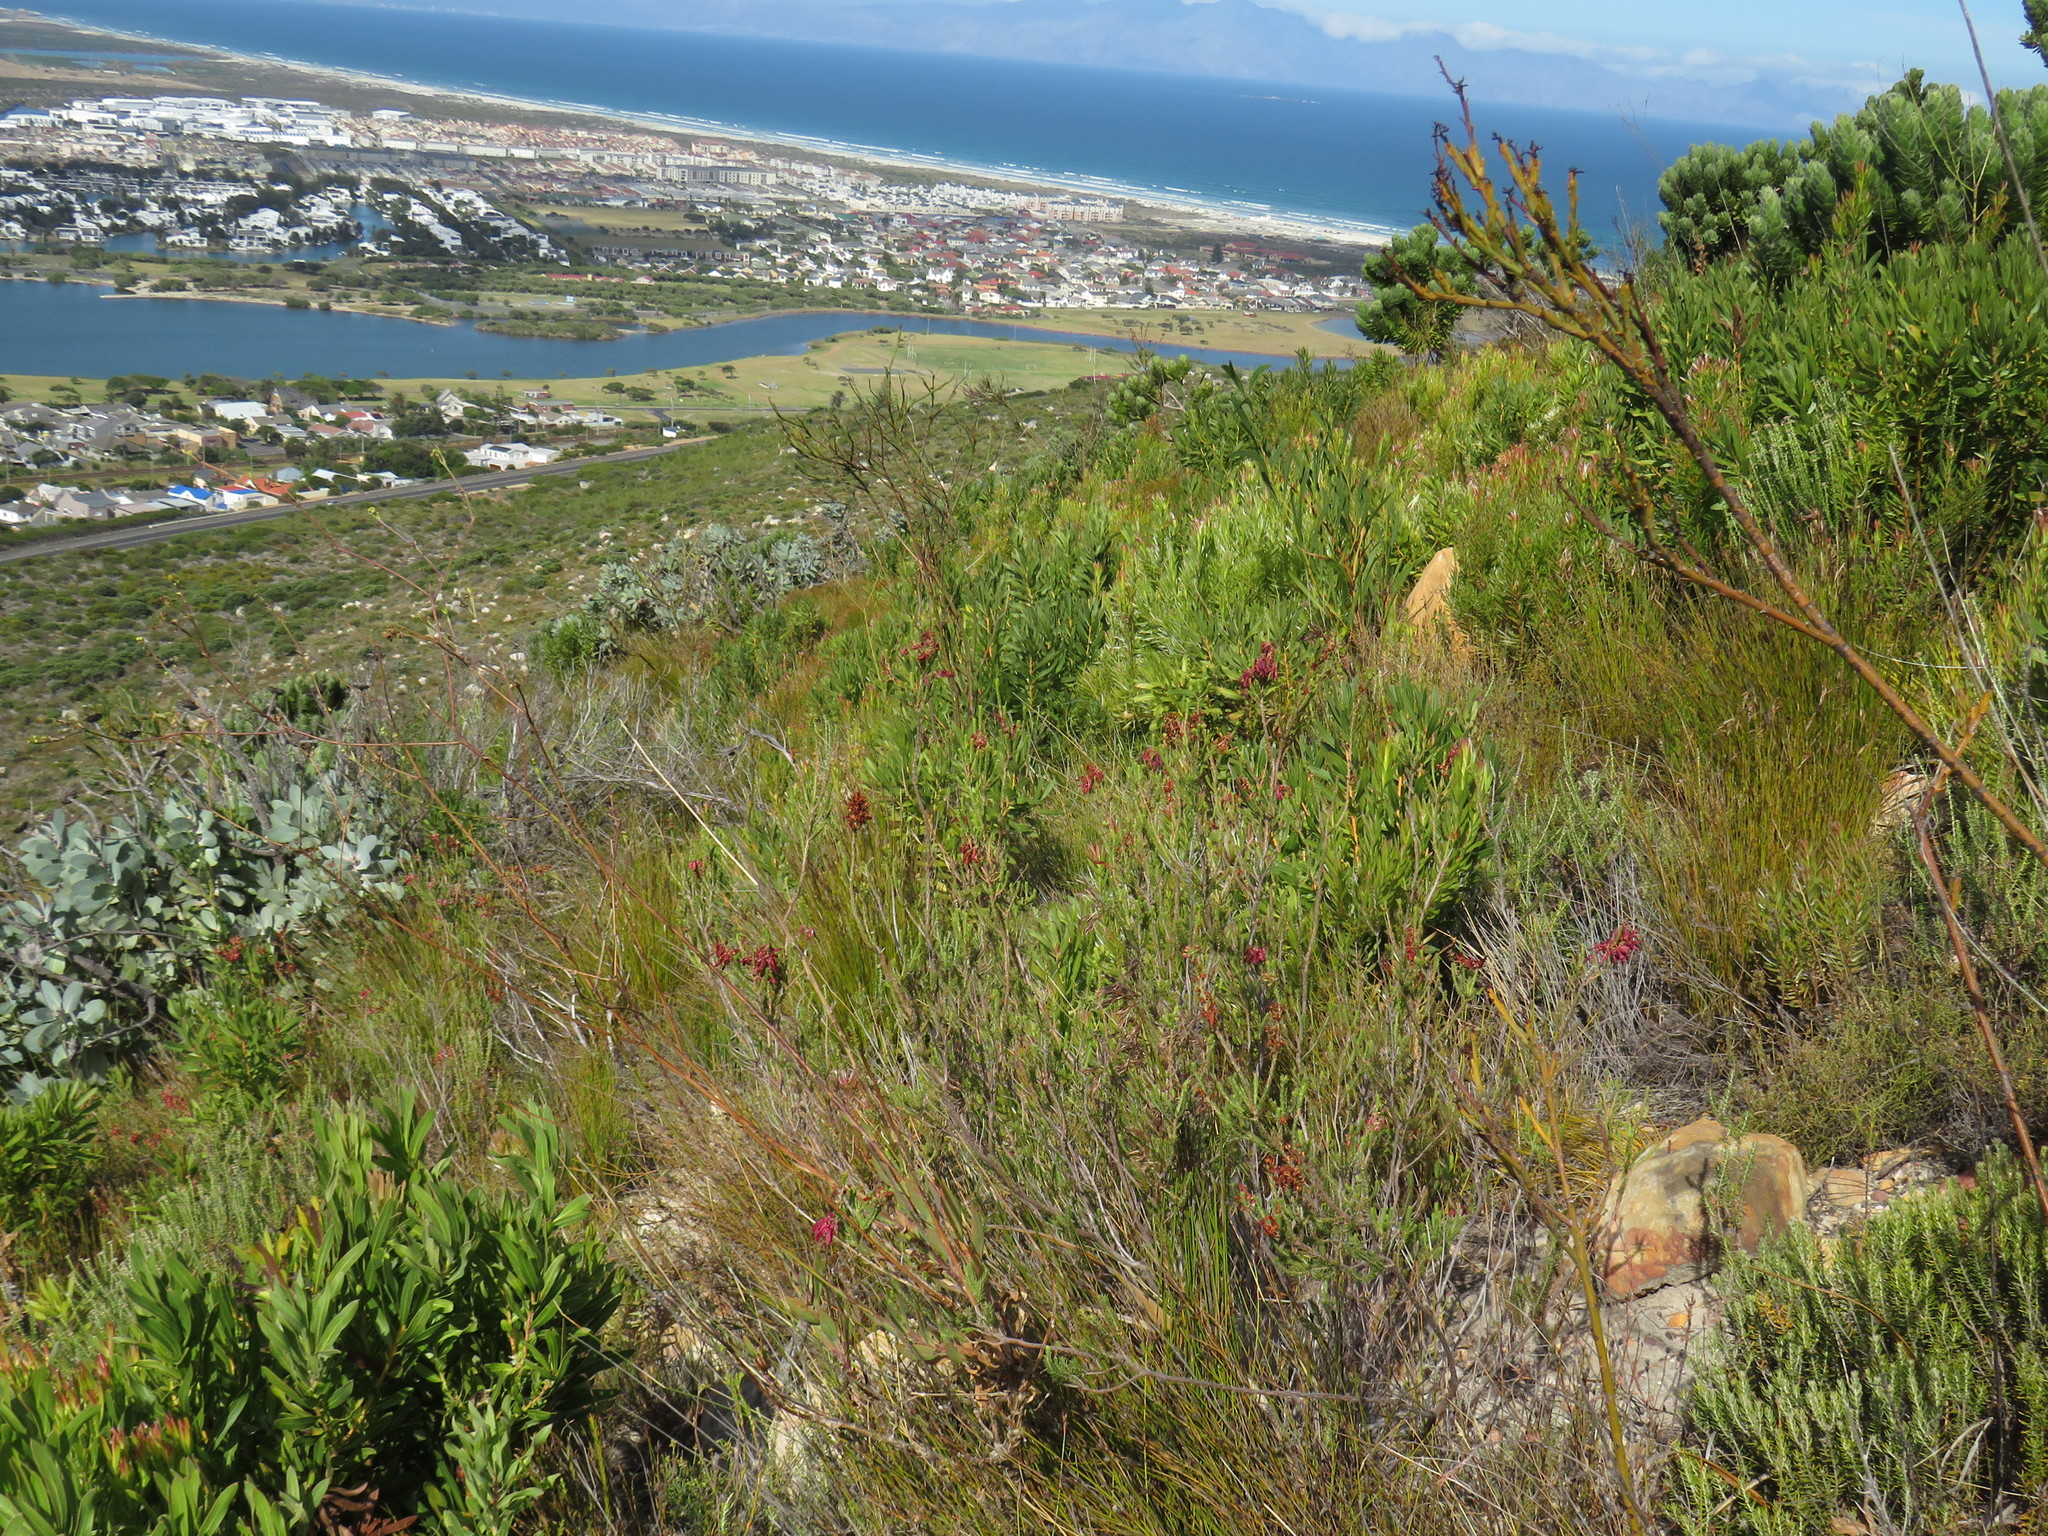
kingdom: Plantae
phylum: Tracheophyta
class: Magnoliopsida
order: Ericales
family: Ericaceae
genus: Erica
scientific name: Erica mammosa
